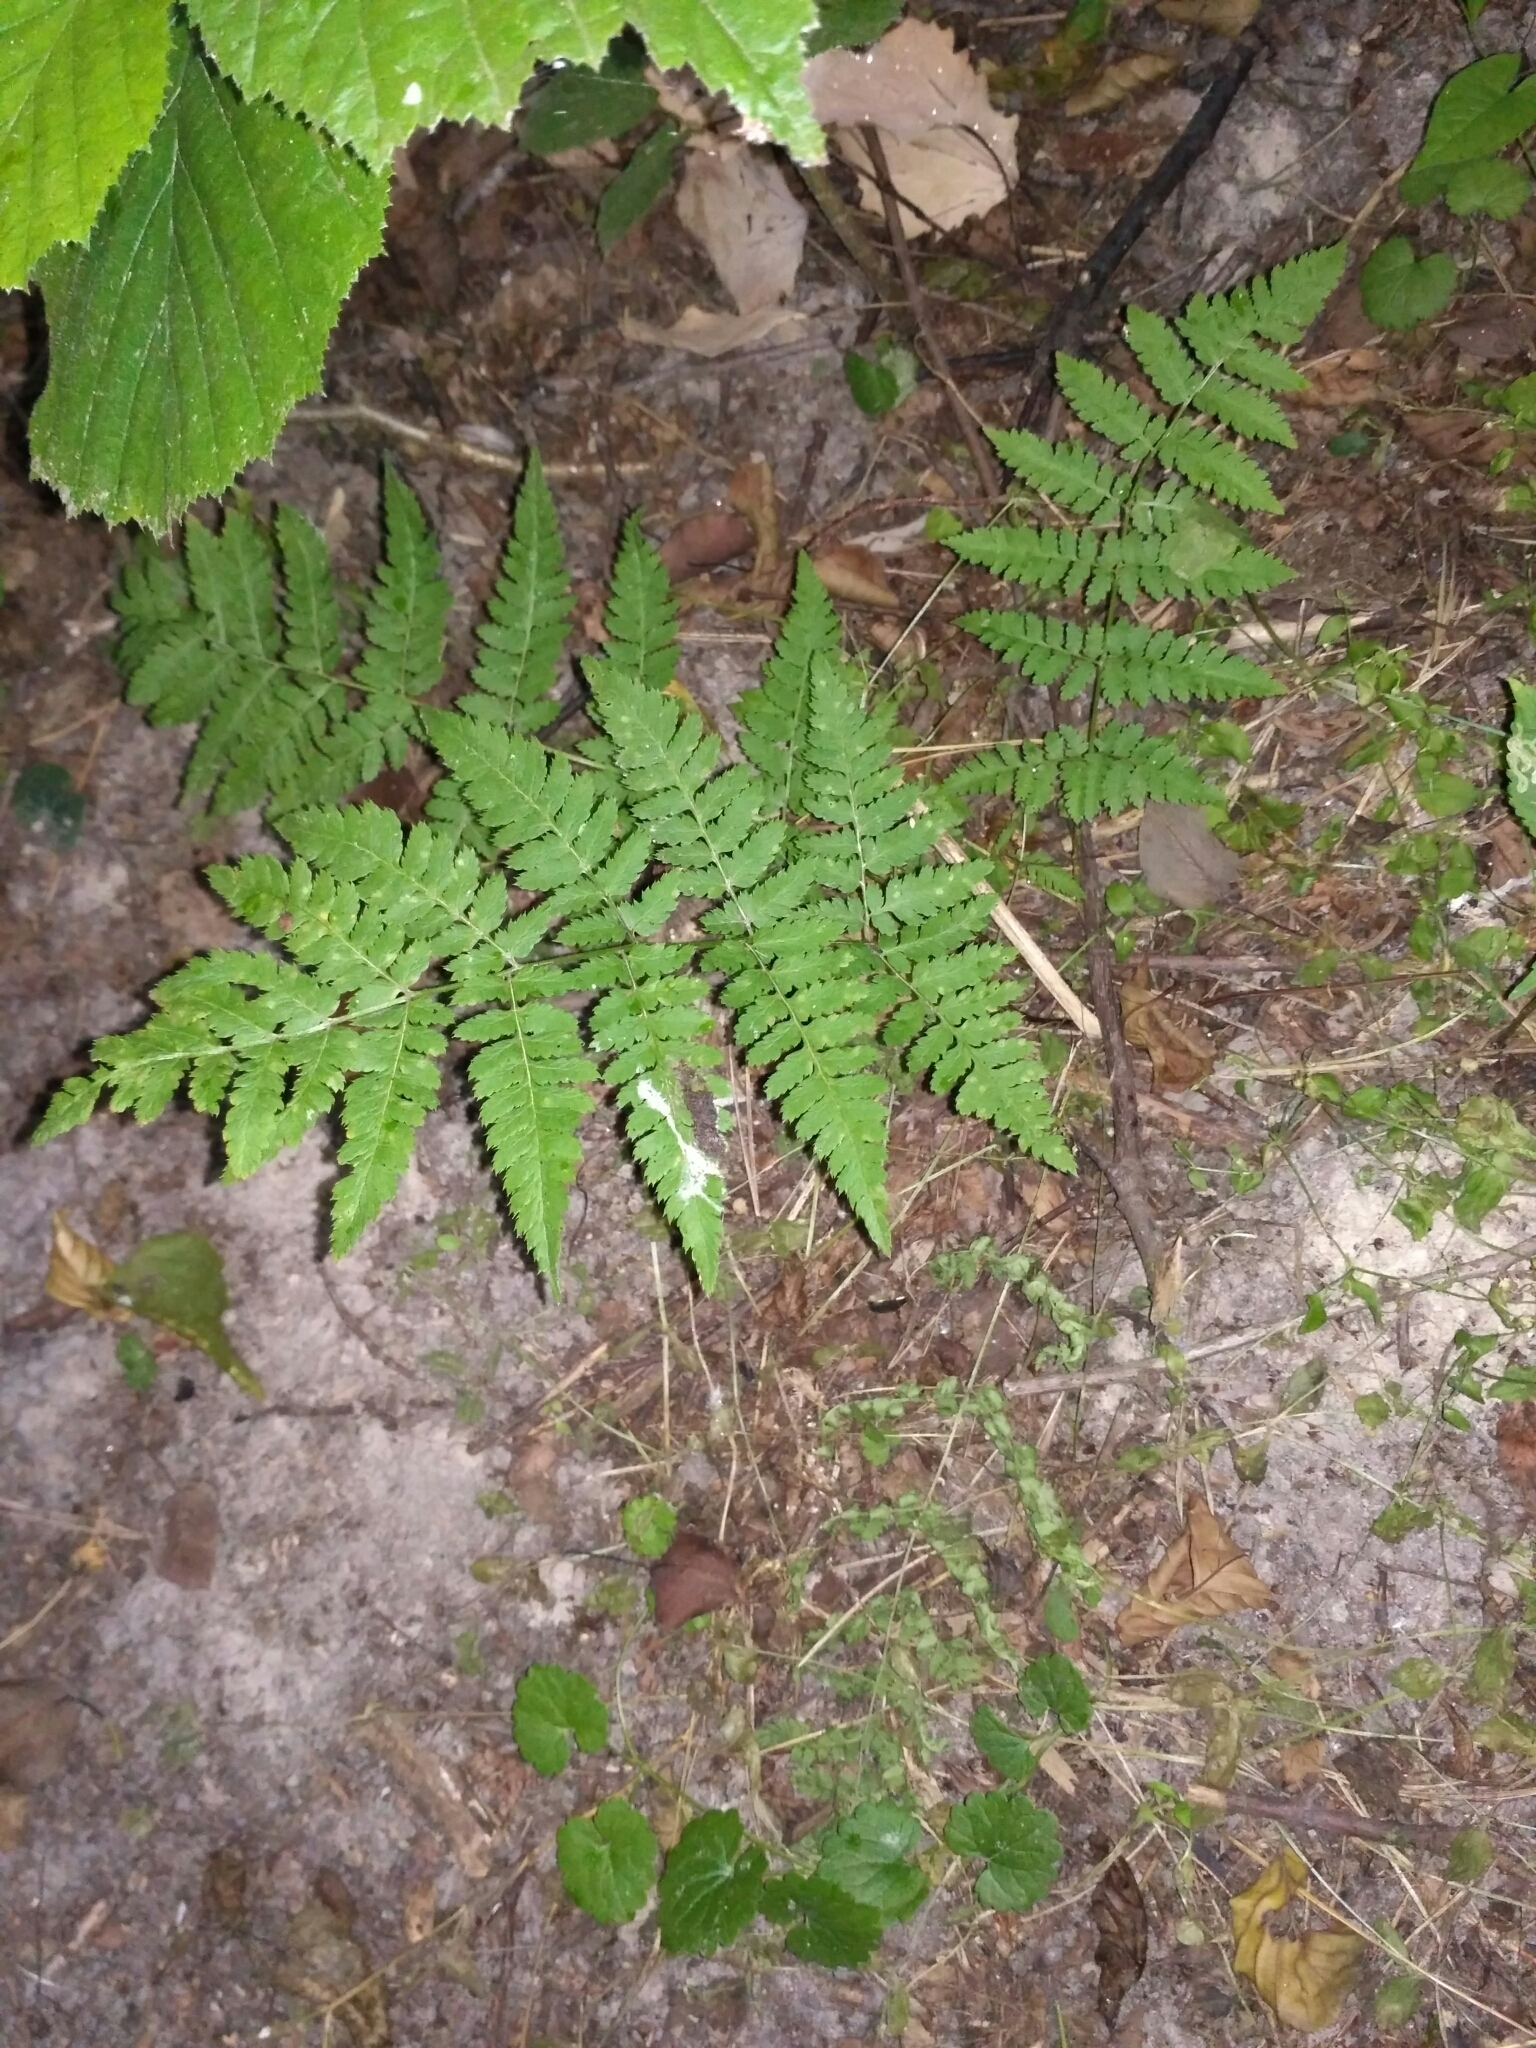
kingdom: Plantae
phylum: Tracheophyta
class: Polypodiopsida
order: Polypodiales
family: Dryopteridaceae
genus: Dryopteris
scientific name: Dryopteris carthusiana
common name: Narrow buckler-fern
